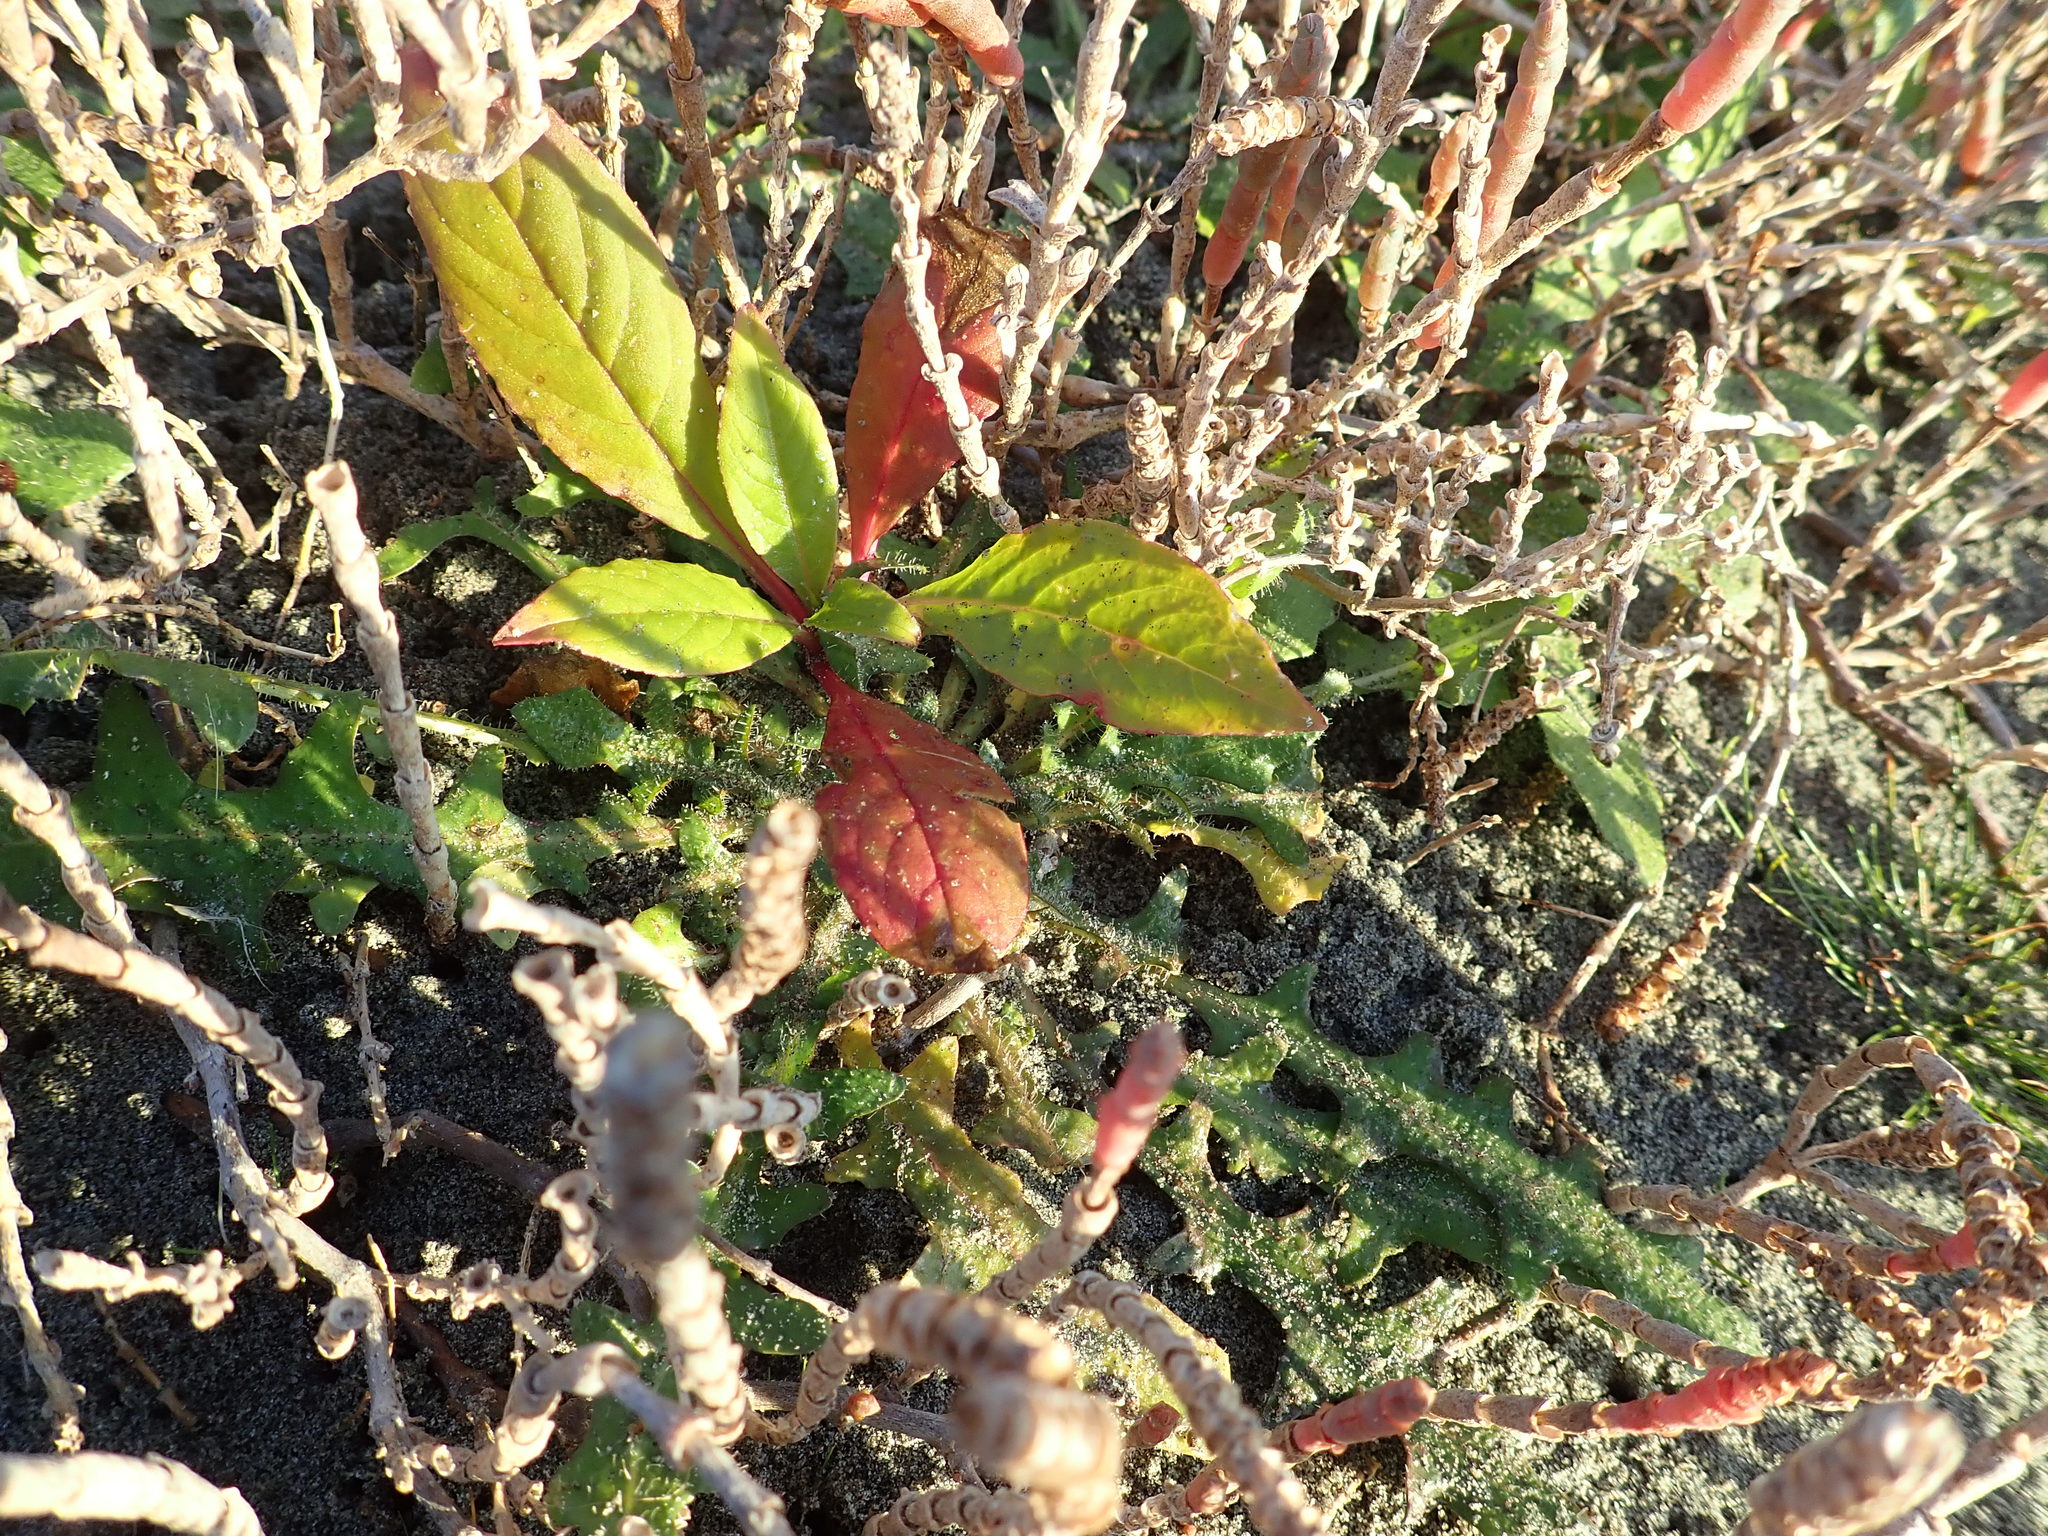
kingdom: Plantae
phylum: Tracheophyta
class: Magnoliopsida
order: Caryophyllales
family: Phytolaccaceae
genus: Phytolacca
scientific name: Phytolacca icosandra
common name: Button pokeweed
